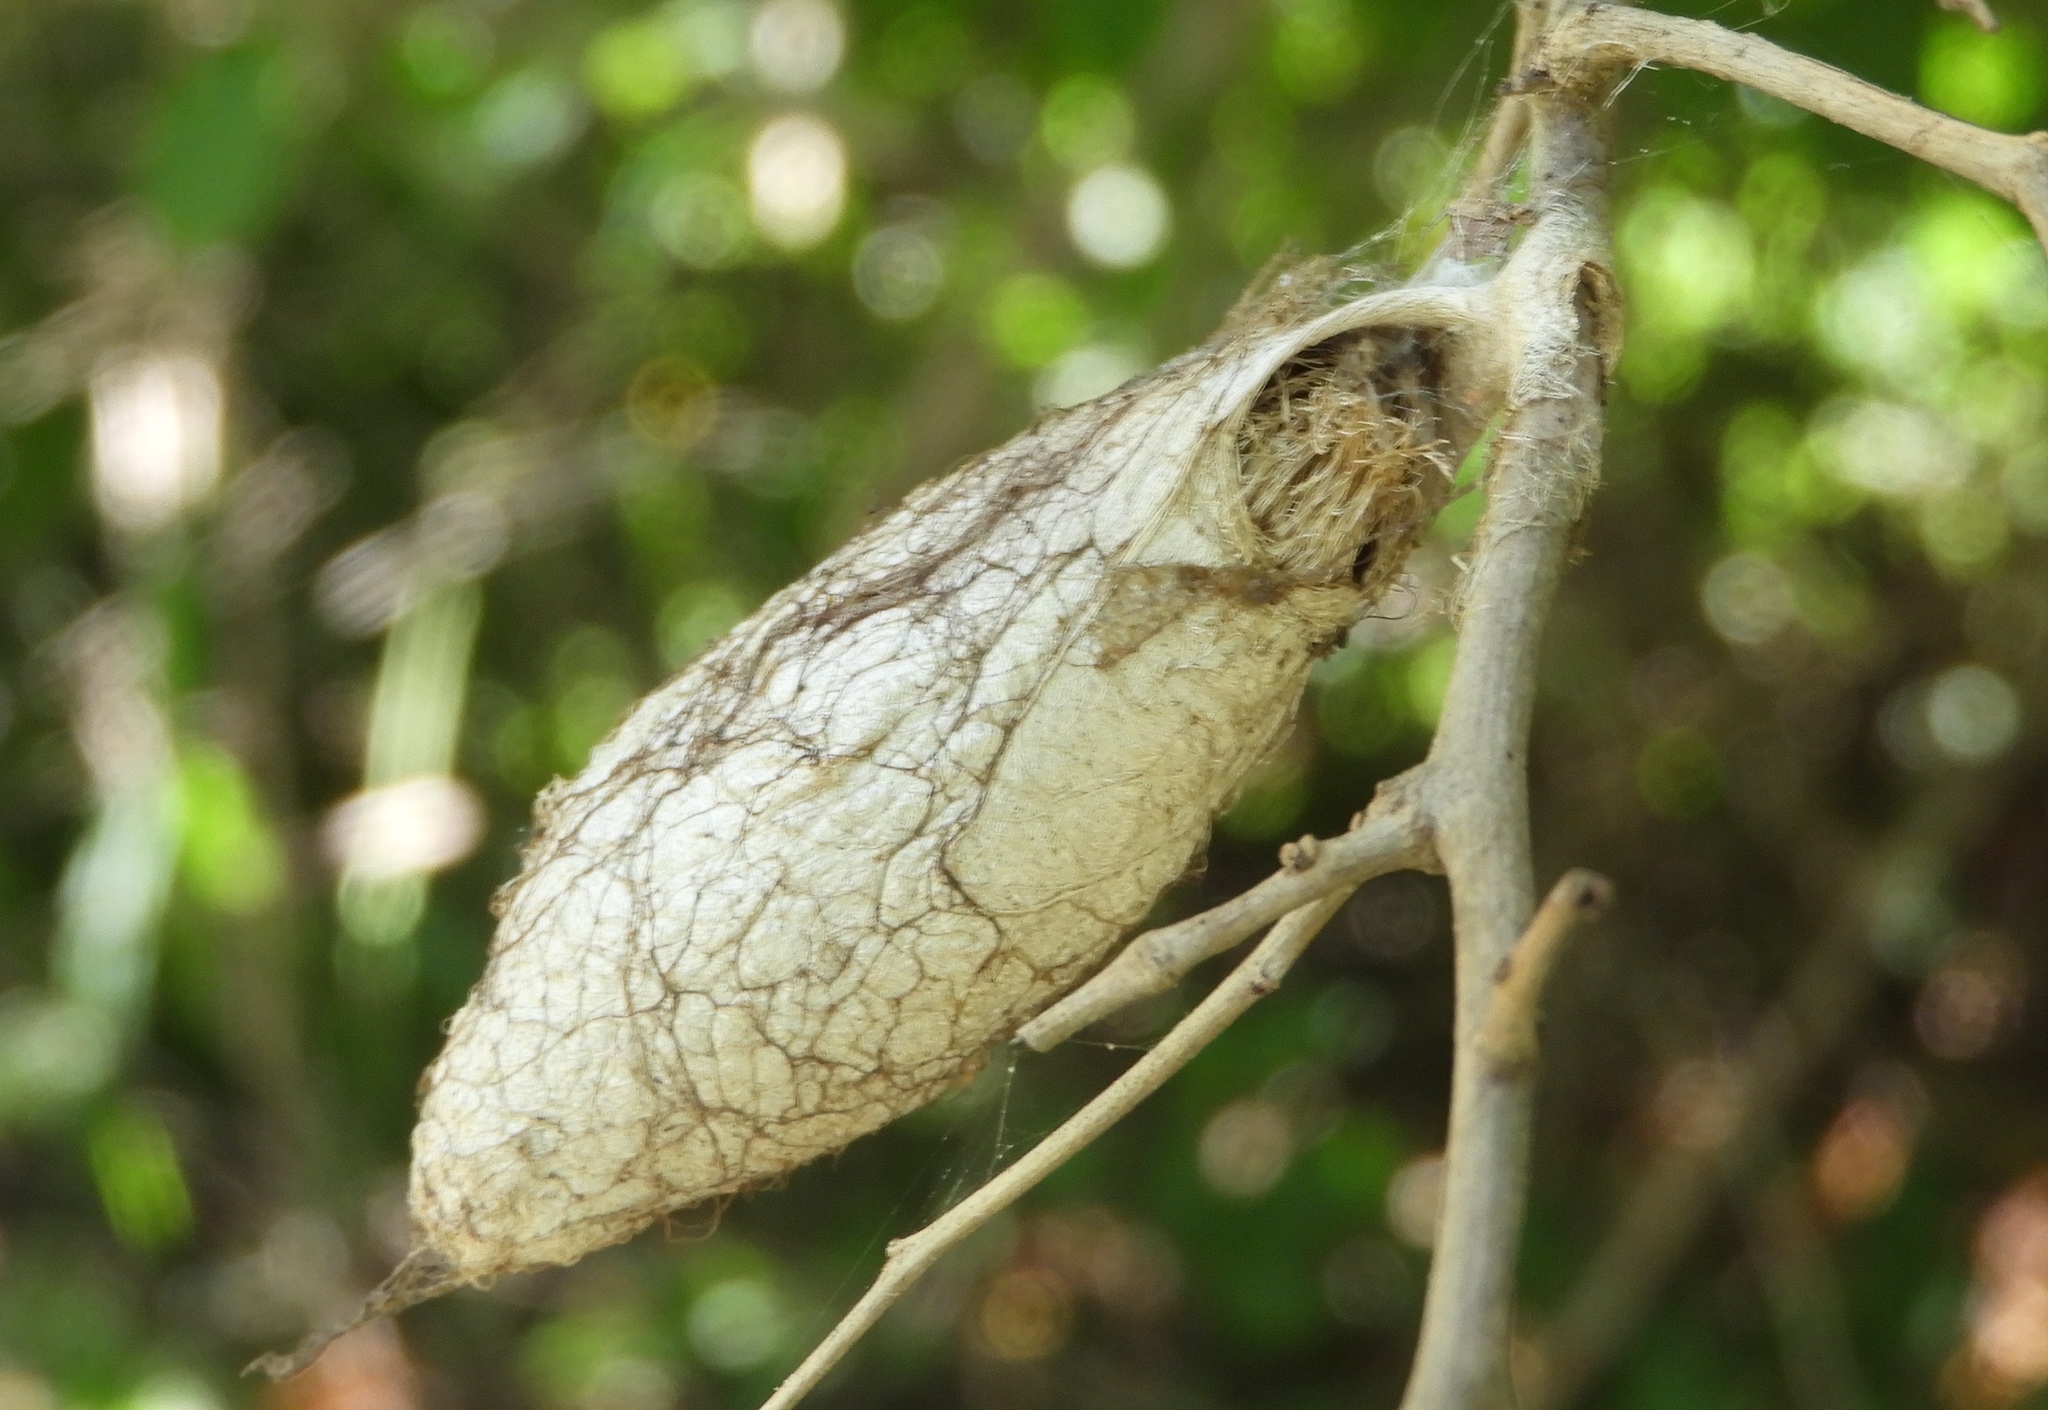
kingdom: Animalia
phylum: Arthropoda
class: Insecta
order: Lepidoptera
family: Saturniidae
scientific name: Saturniidae
